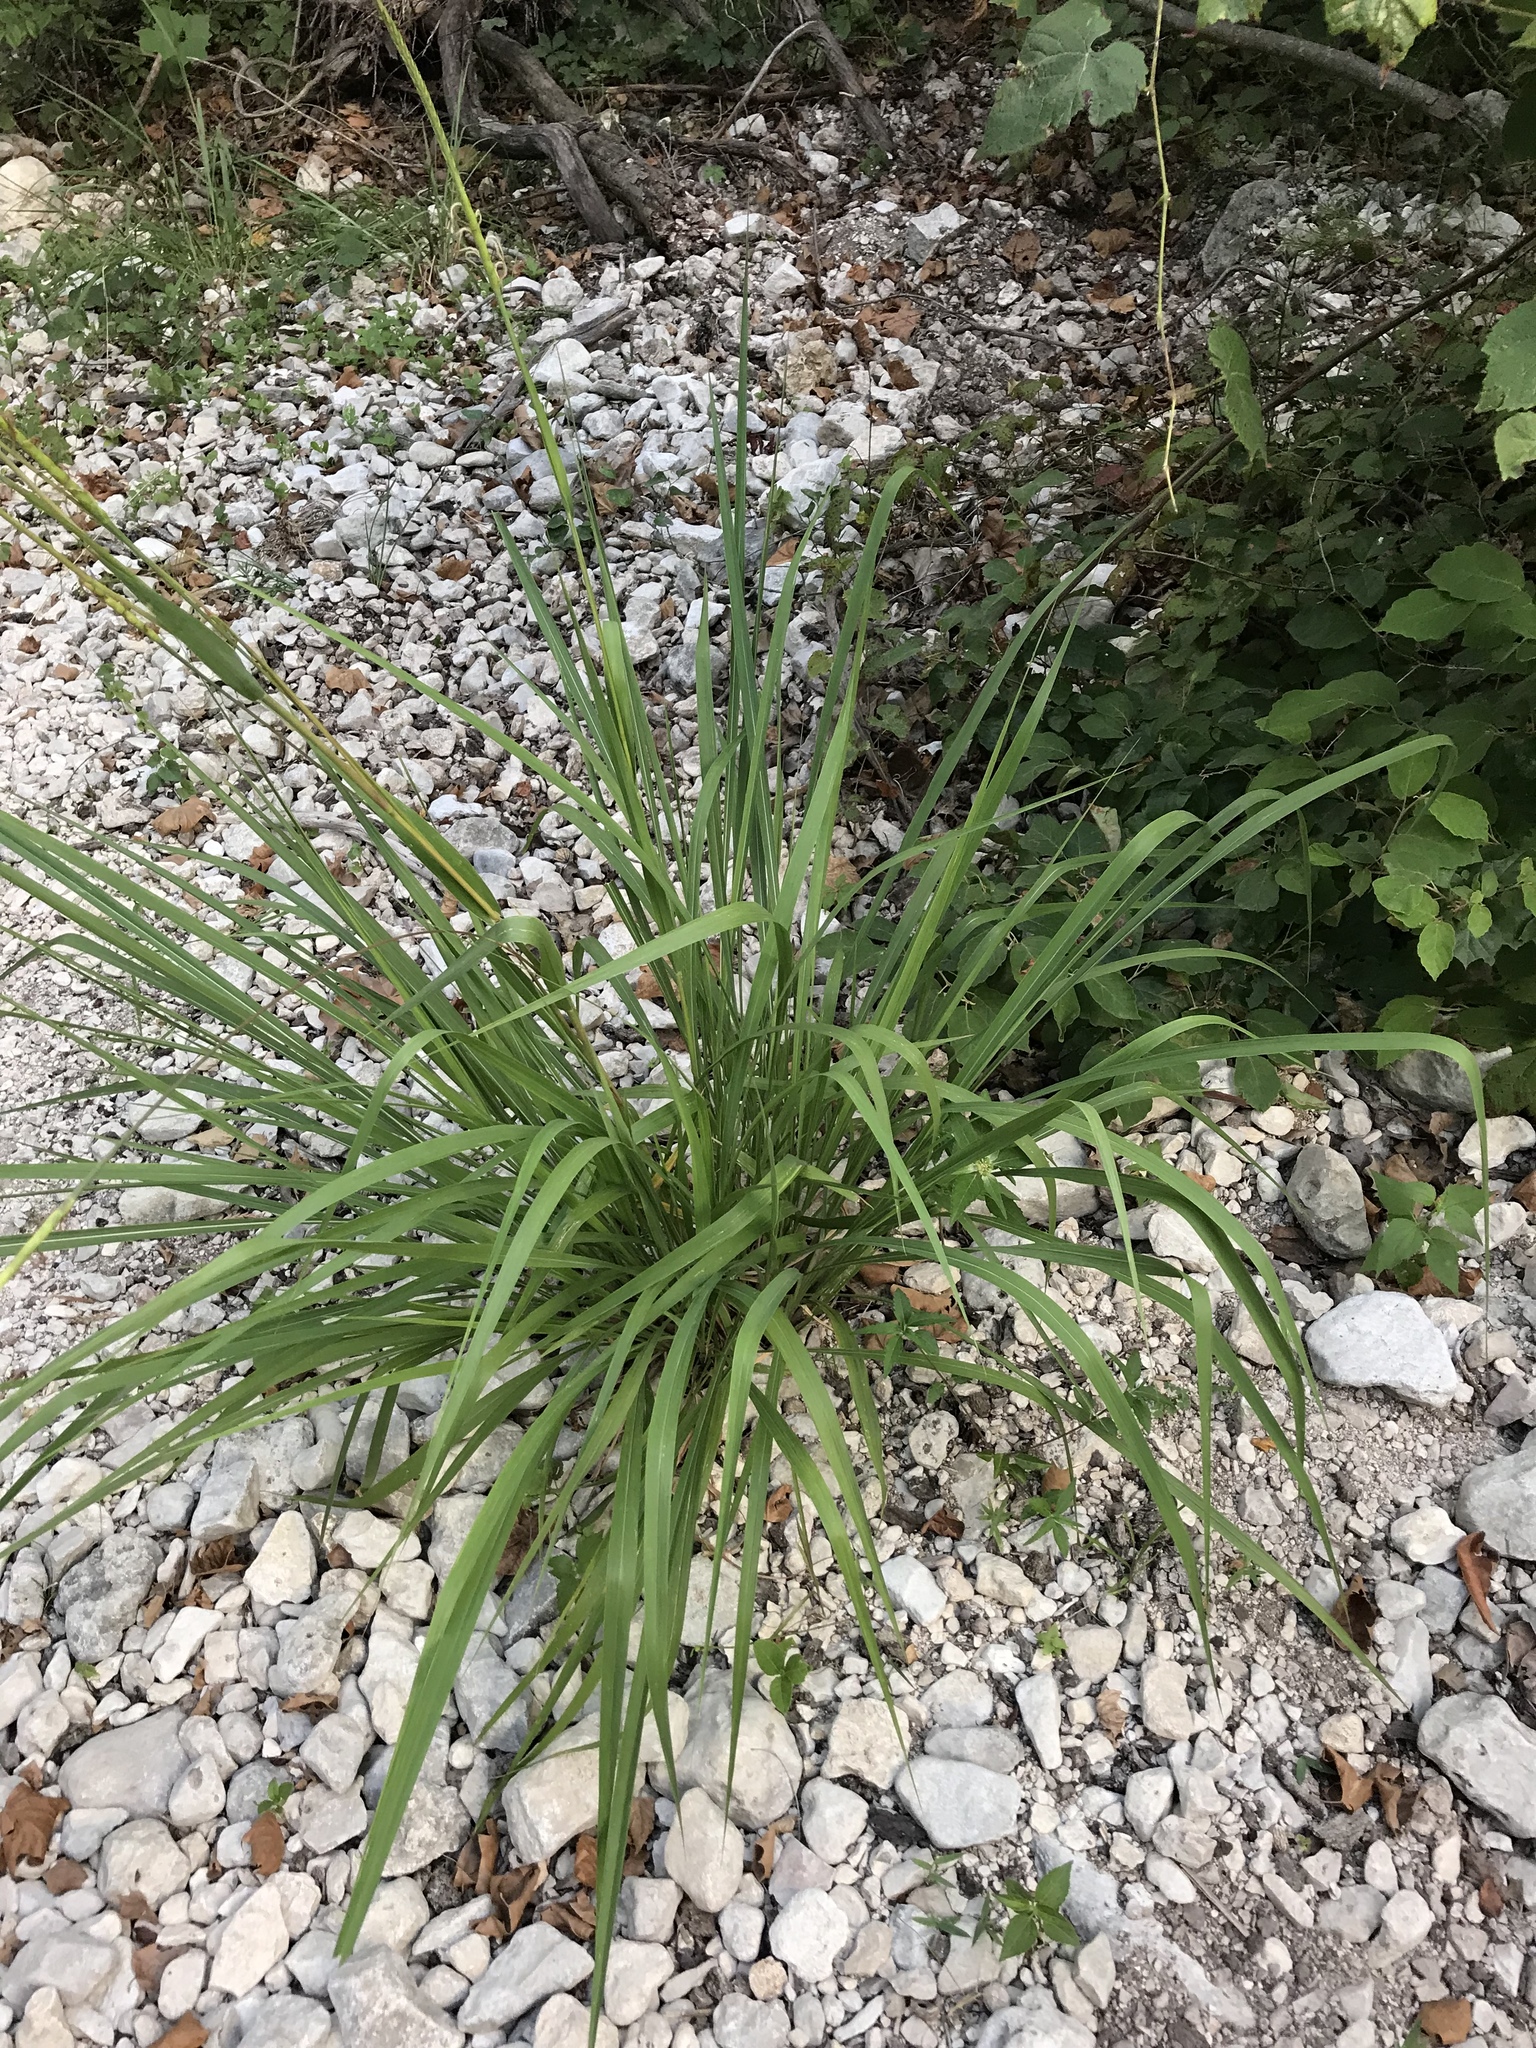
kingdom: Plantae
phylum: Tracheophyta
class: Liliopsida
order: Poales
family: Poaceae
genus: Tripsacum
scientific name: Tripsacum dactyloides
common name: Buffalo-grass
